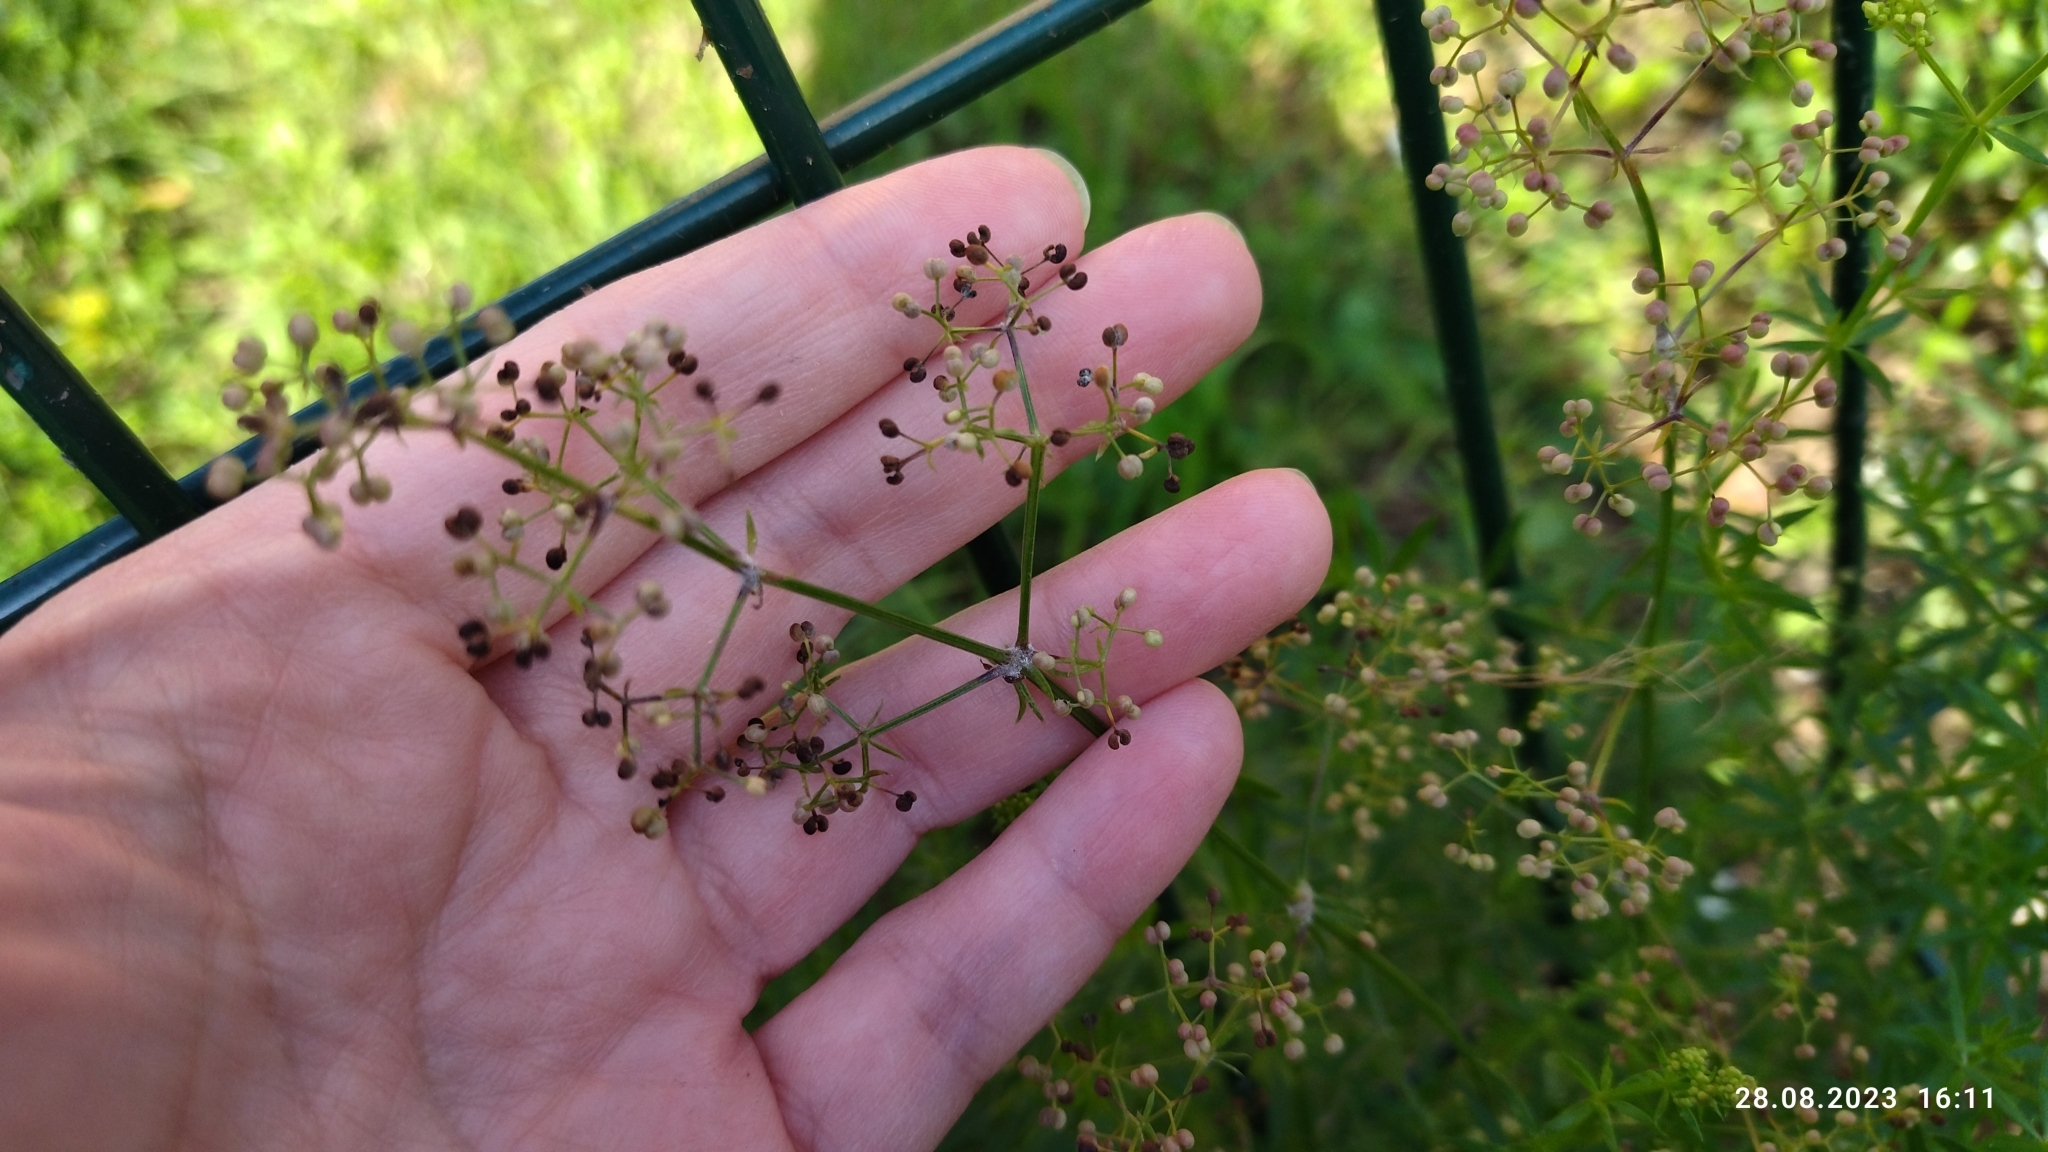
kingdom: Plantae
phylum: Tracheophyta
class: Magnoliopsida
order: Gentianales
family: Rubiaceae
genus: Galium
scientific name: Galium mollugo
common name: Hedge bedstraw
